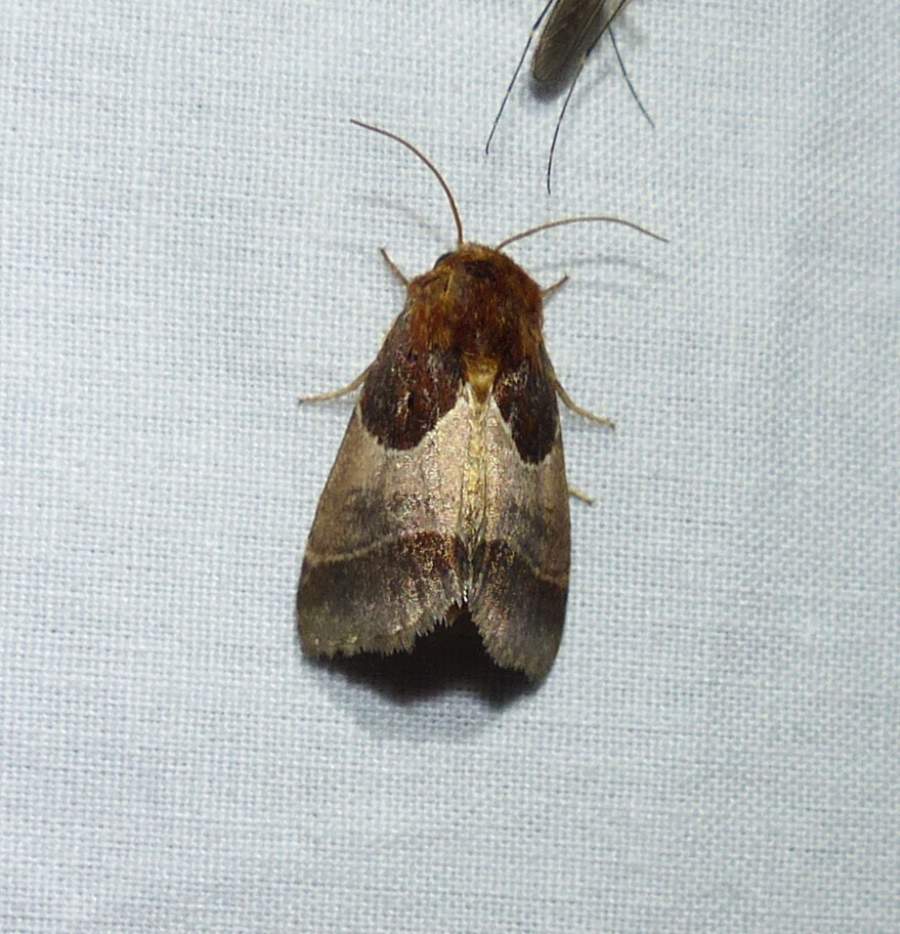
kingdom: Animalia
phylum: Arthropoda
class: Insecta
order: Lepidoptera
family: Noctuidae
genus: Schinia
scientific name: Schinia arcigera
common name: Arcigera flower moth
